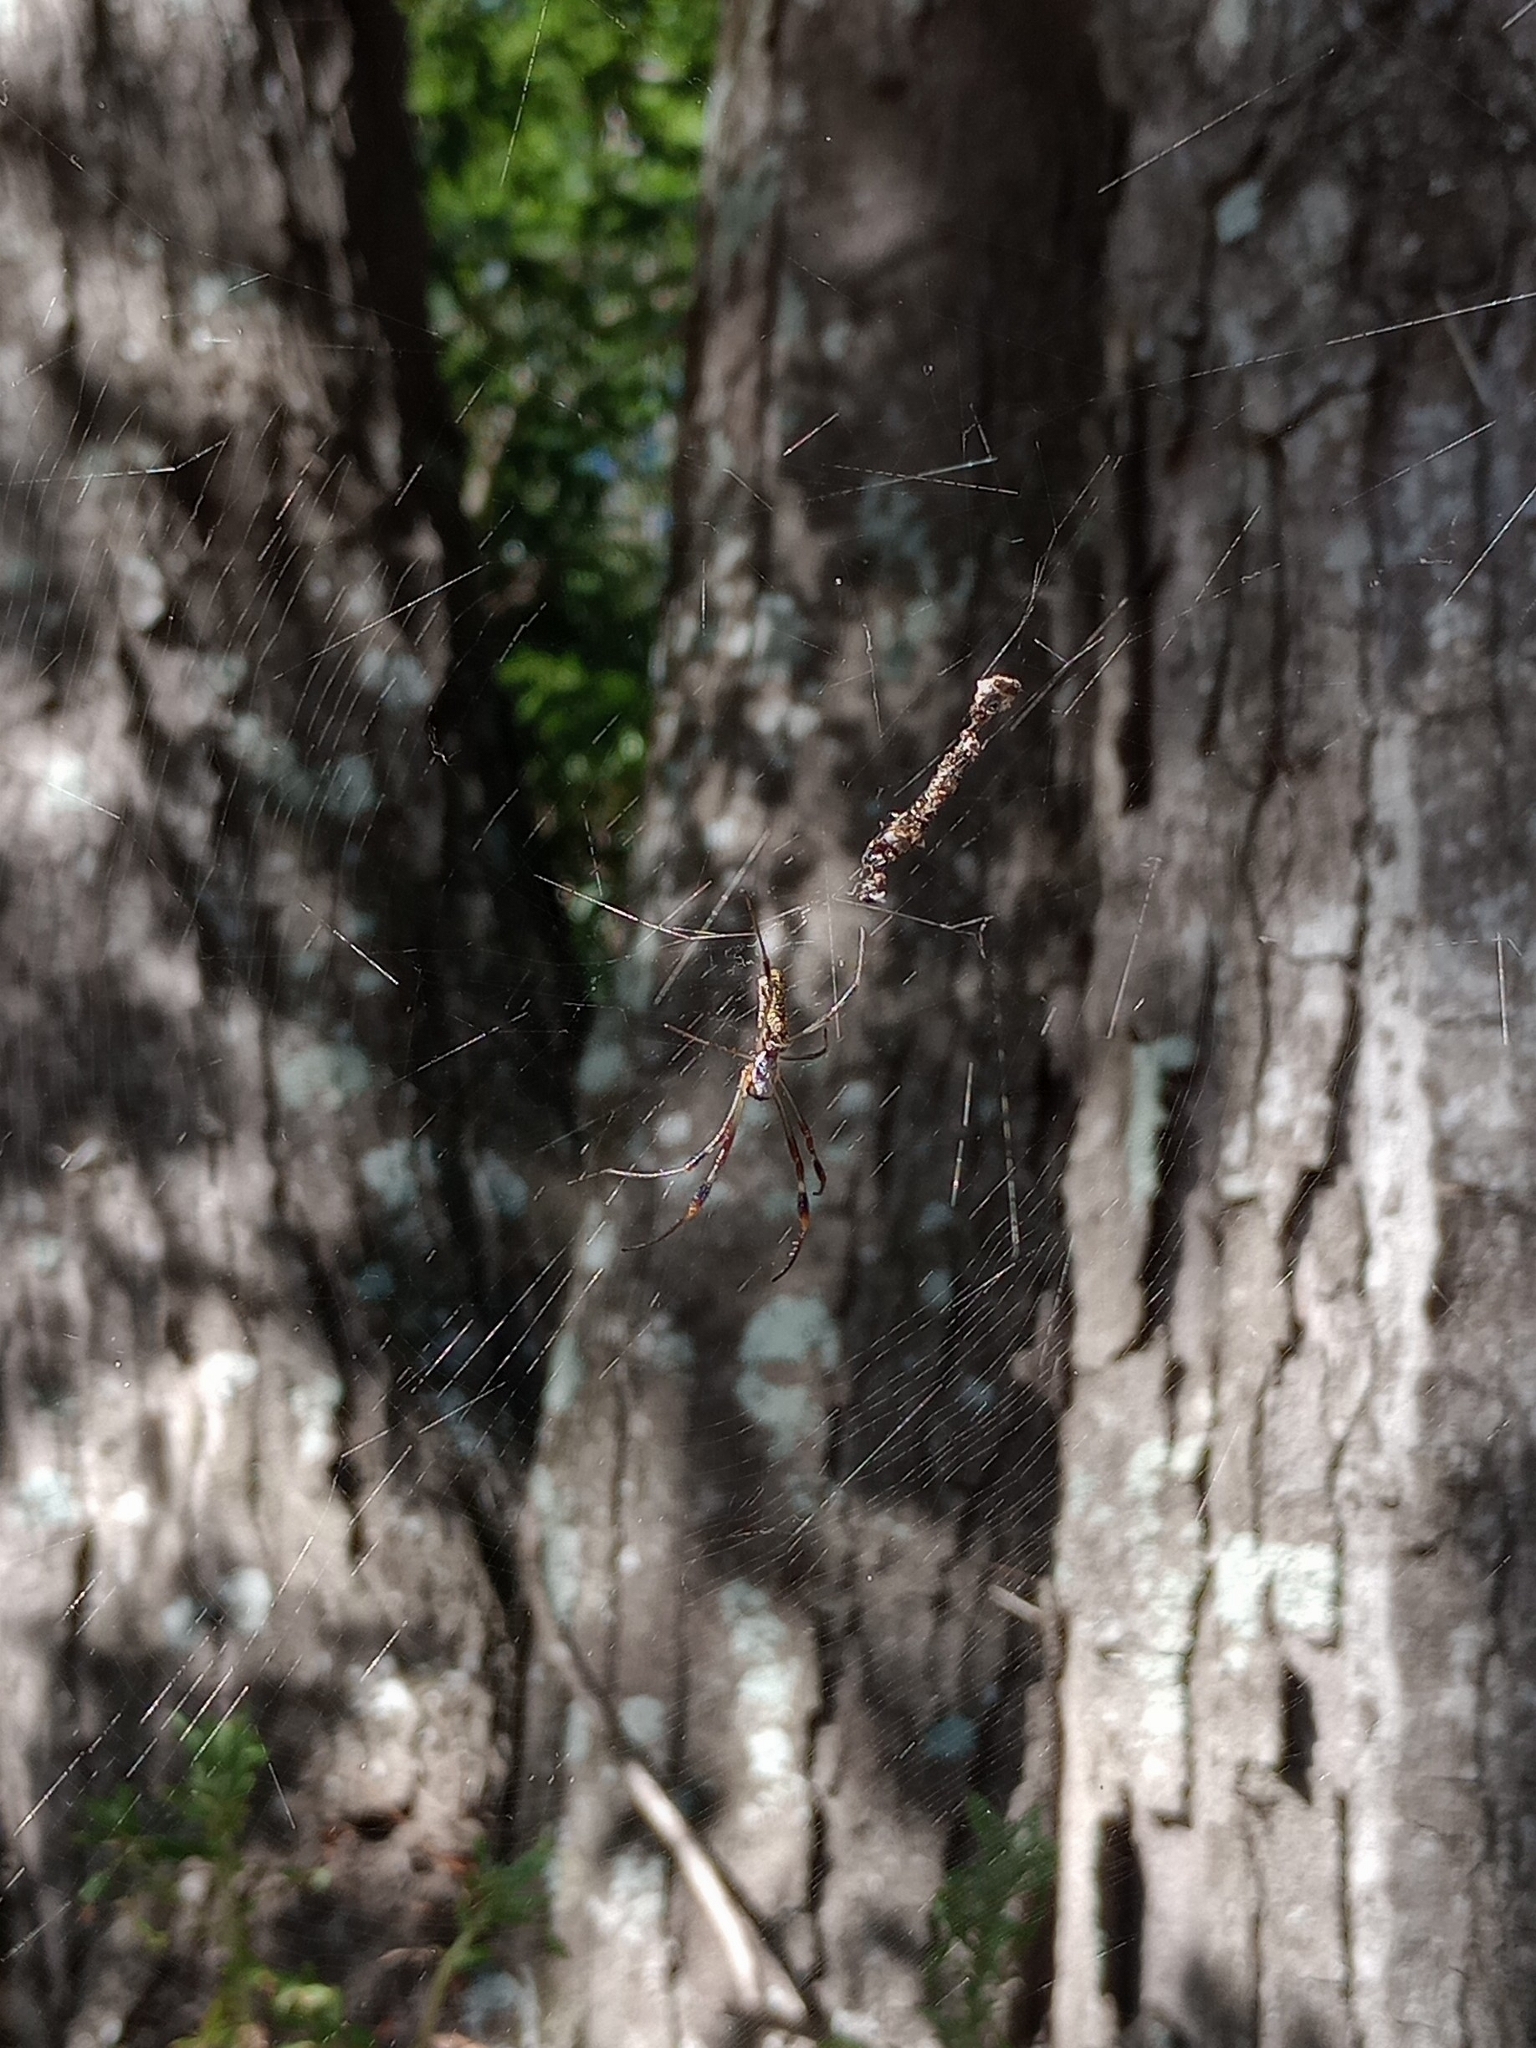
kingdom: Animalia
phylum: Arthropoda
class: Arachnida
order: Araneae
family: Araneidae
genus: Trichonephila
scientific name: Trichonephila sexpunctata
